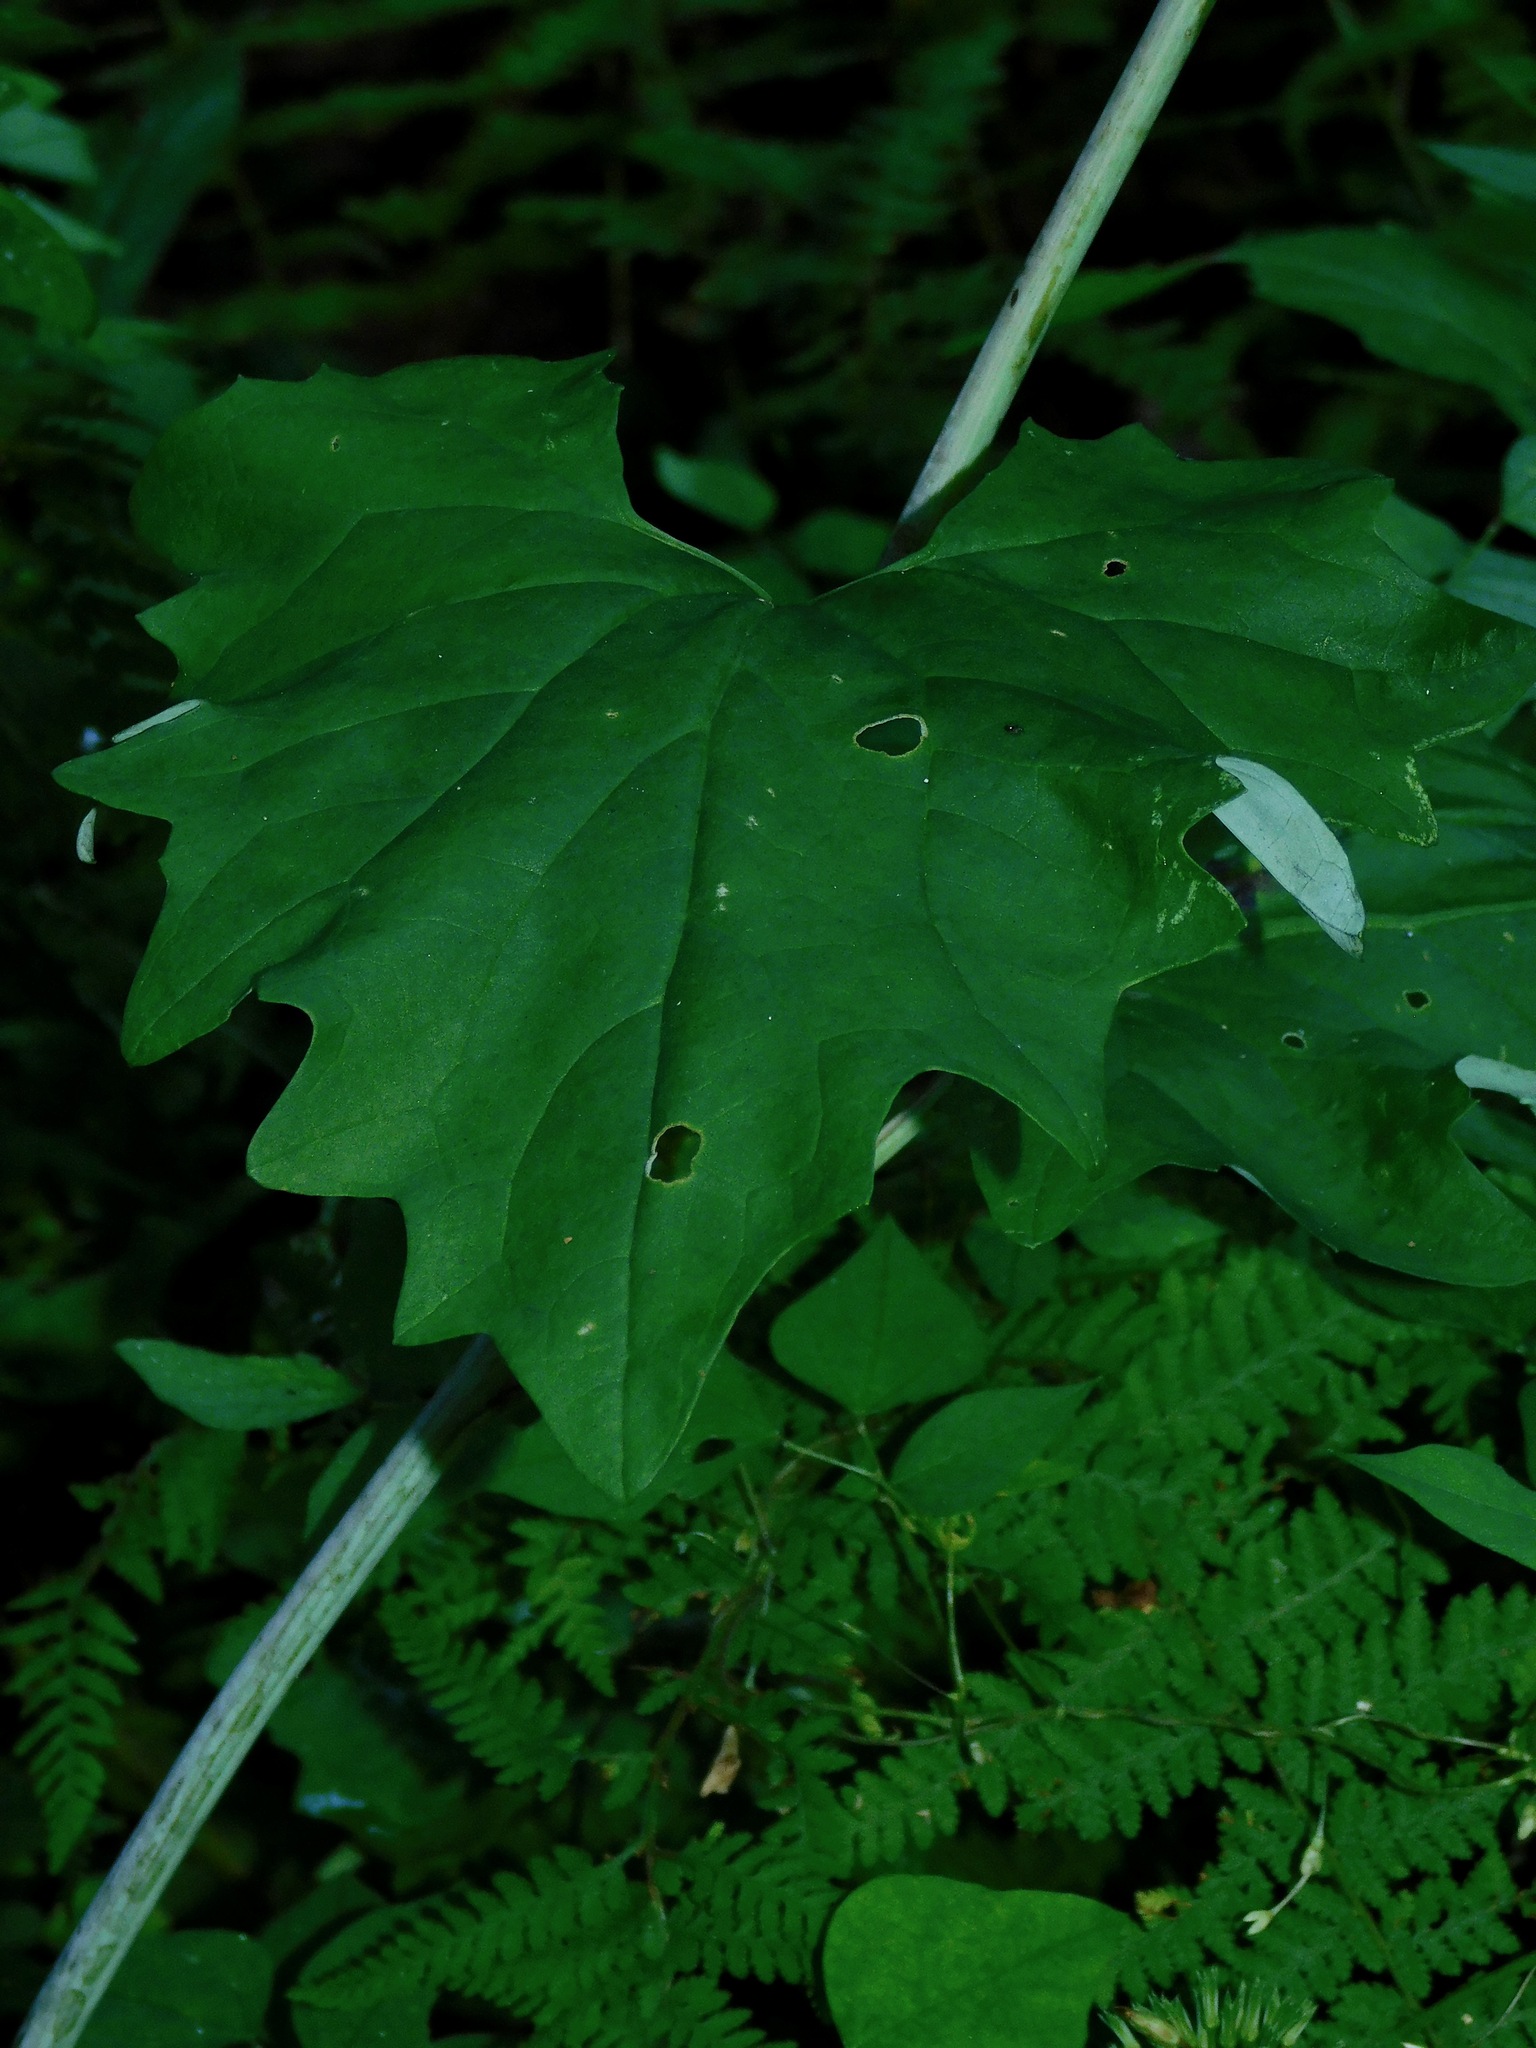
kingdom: Plantae
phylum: Tracheophyta
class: Magnoliopsida
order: Asterales
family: Asteraceae
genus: Arnoglossum
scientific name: Arnoglossum atriplicifolium
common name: Pale indian-plantain
